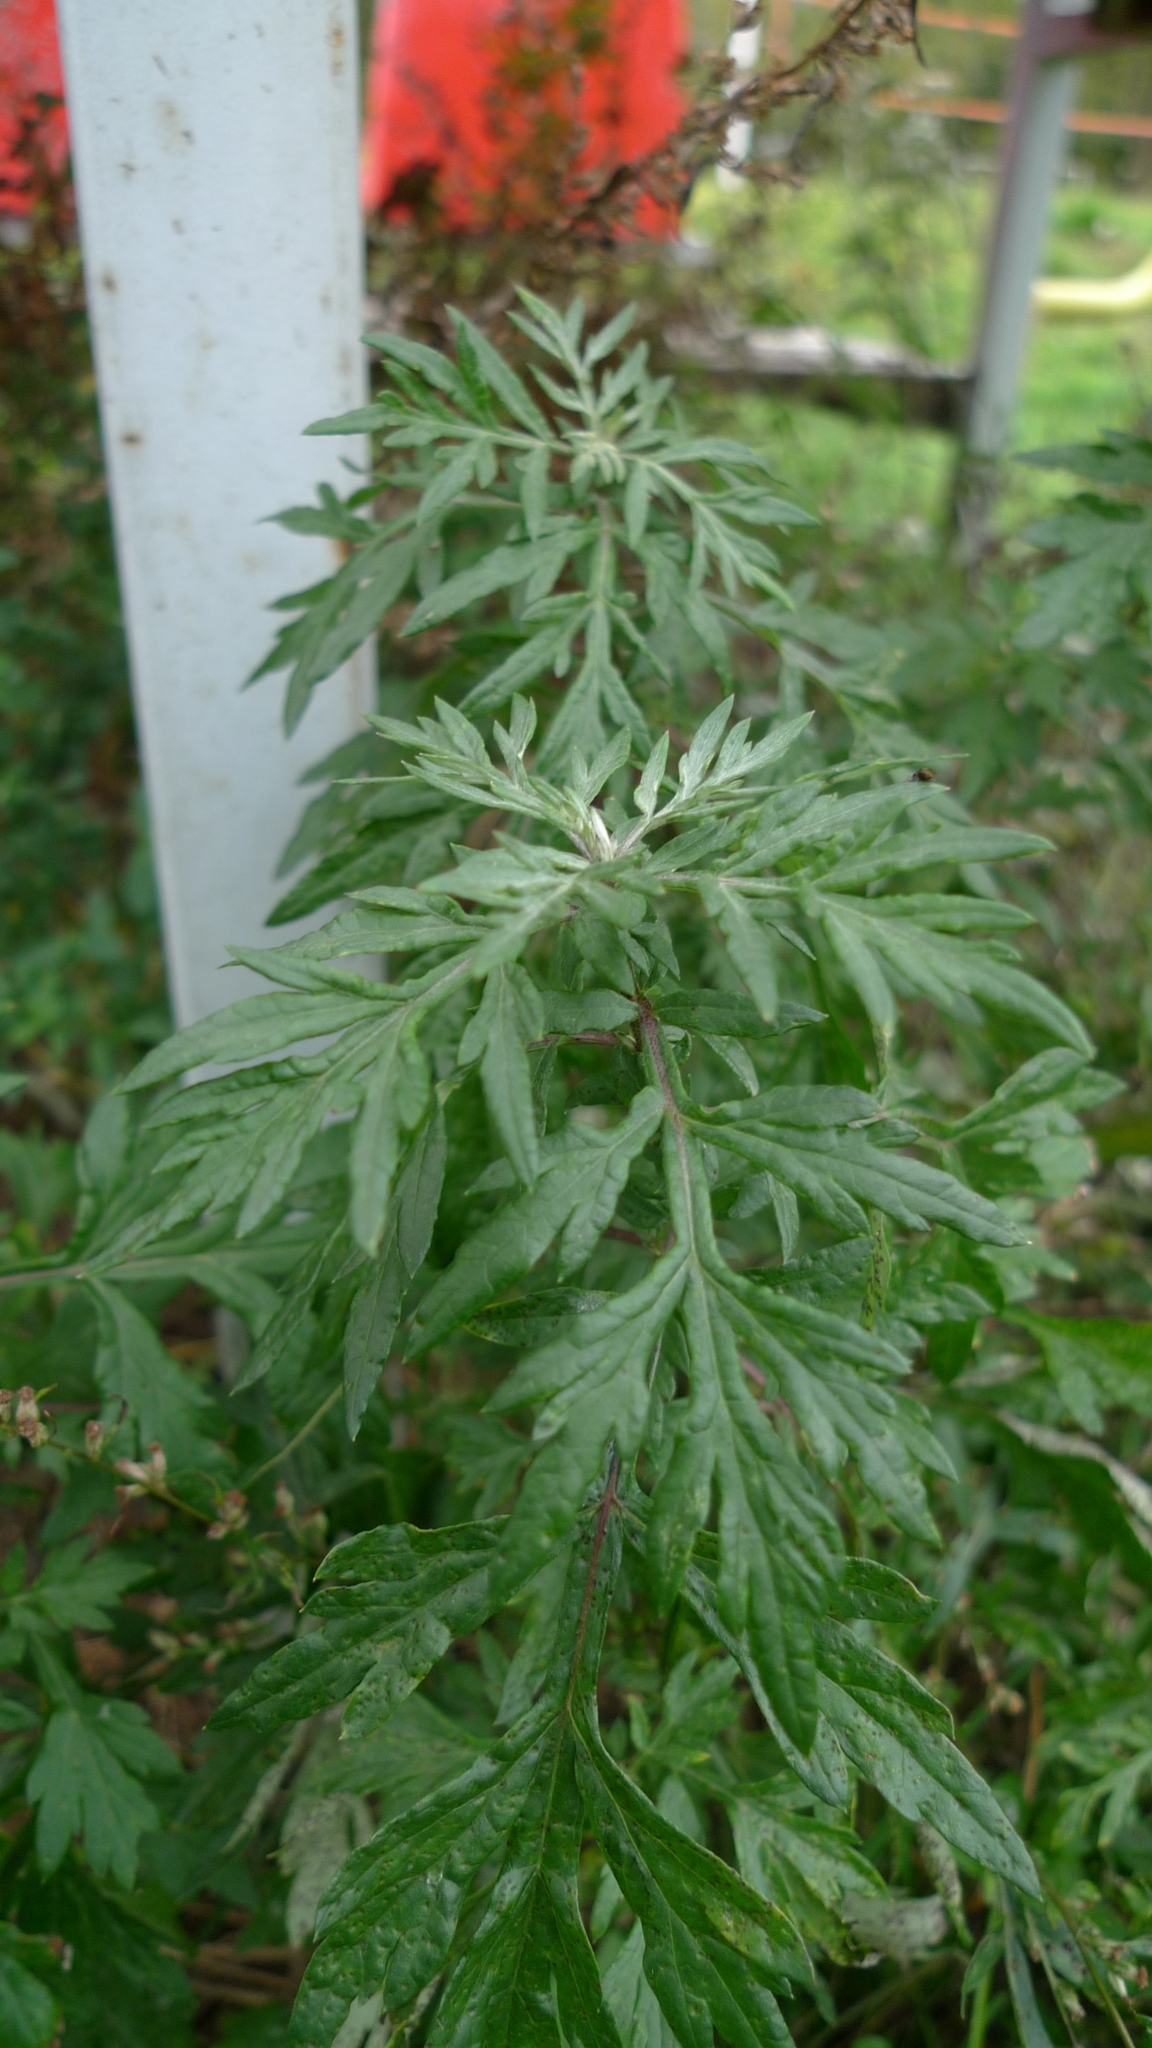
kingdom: Plantae
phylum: Tracheophyta
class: Magnoliopsida
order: Asterales
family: Asteraceae
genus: Artemisia
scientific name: Artemisia vulgaris
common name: Mugwort
